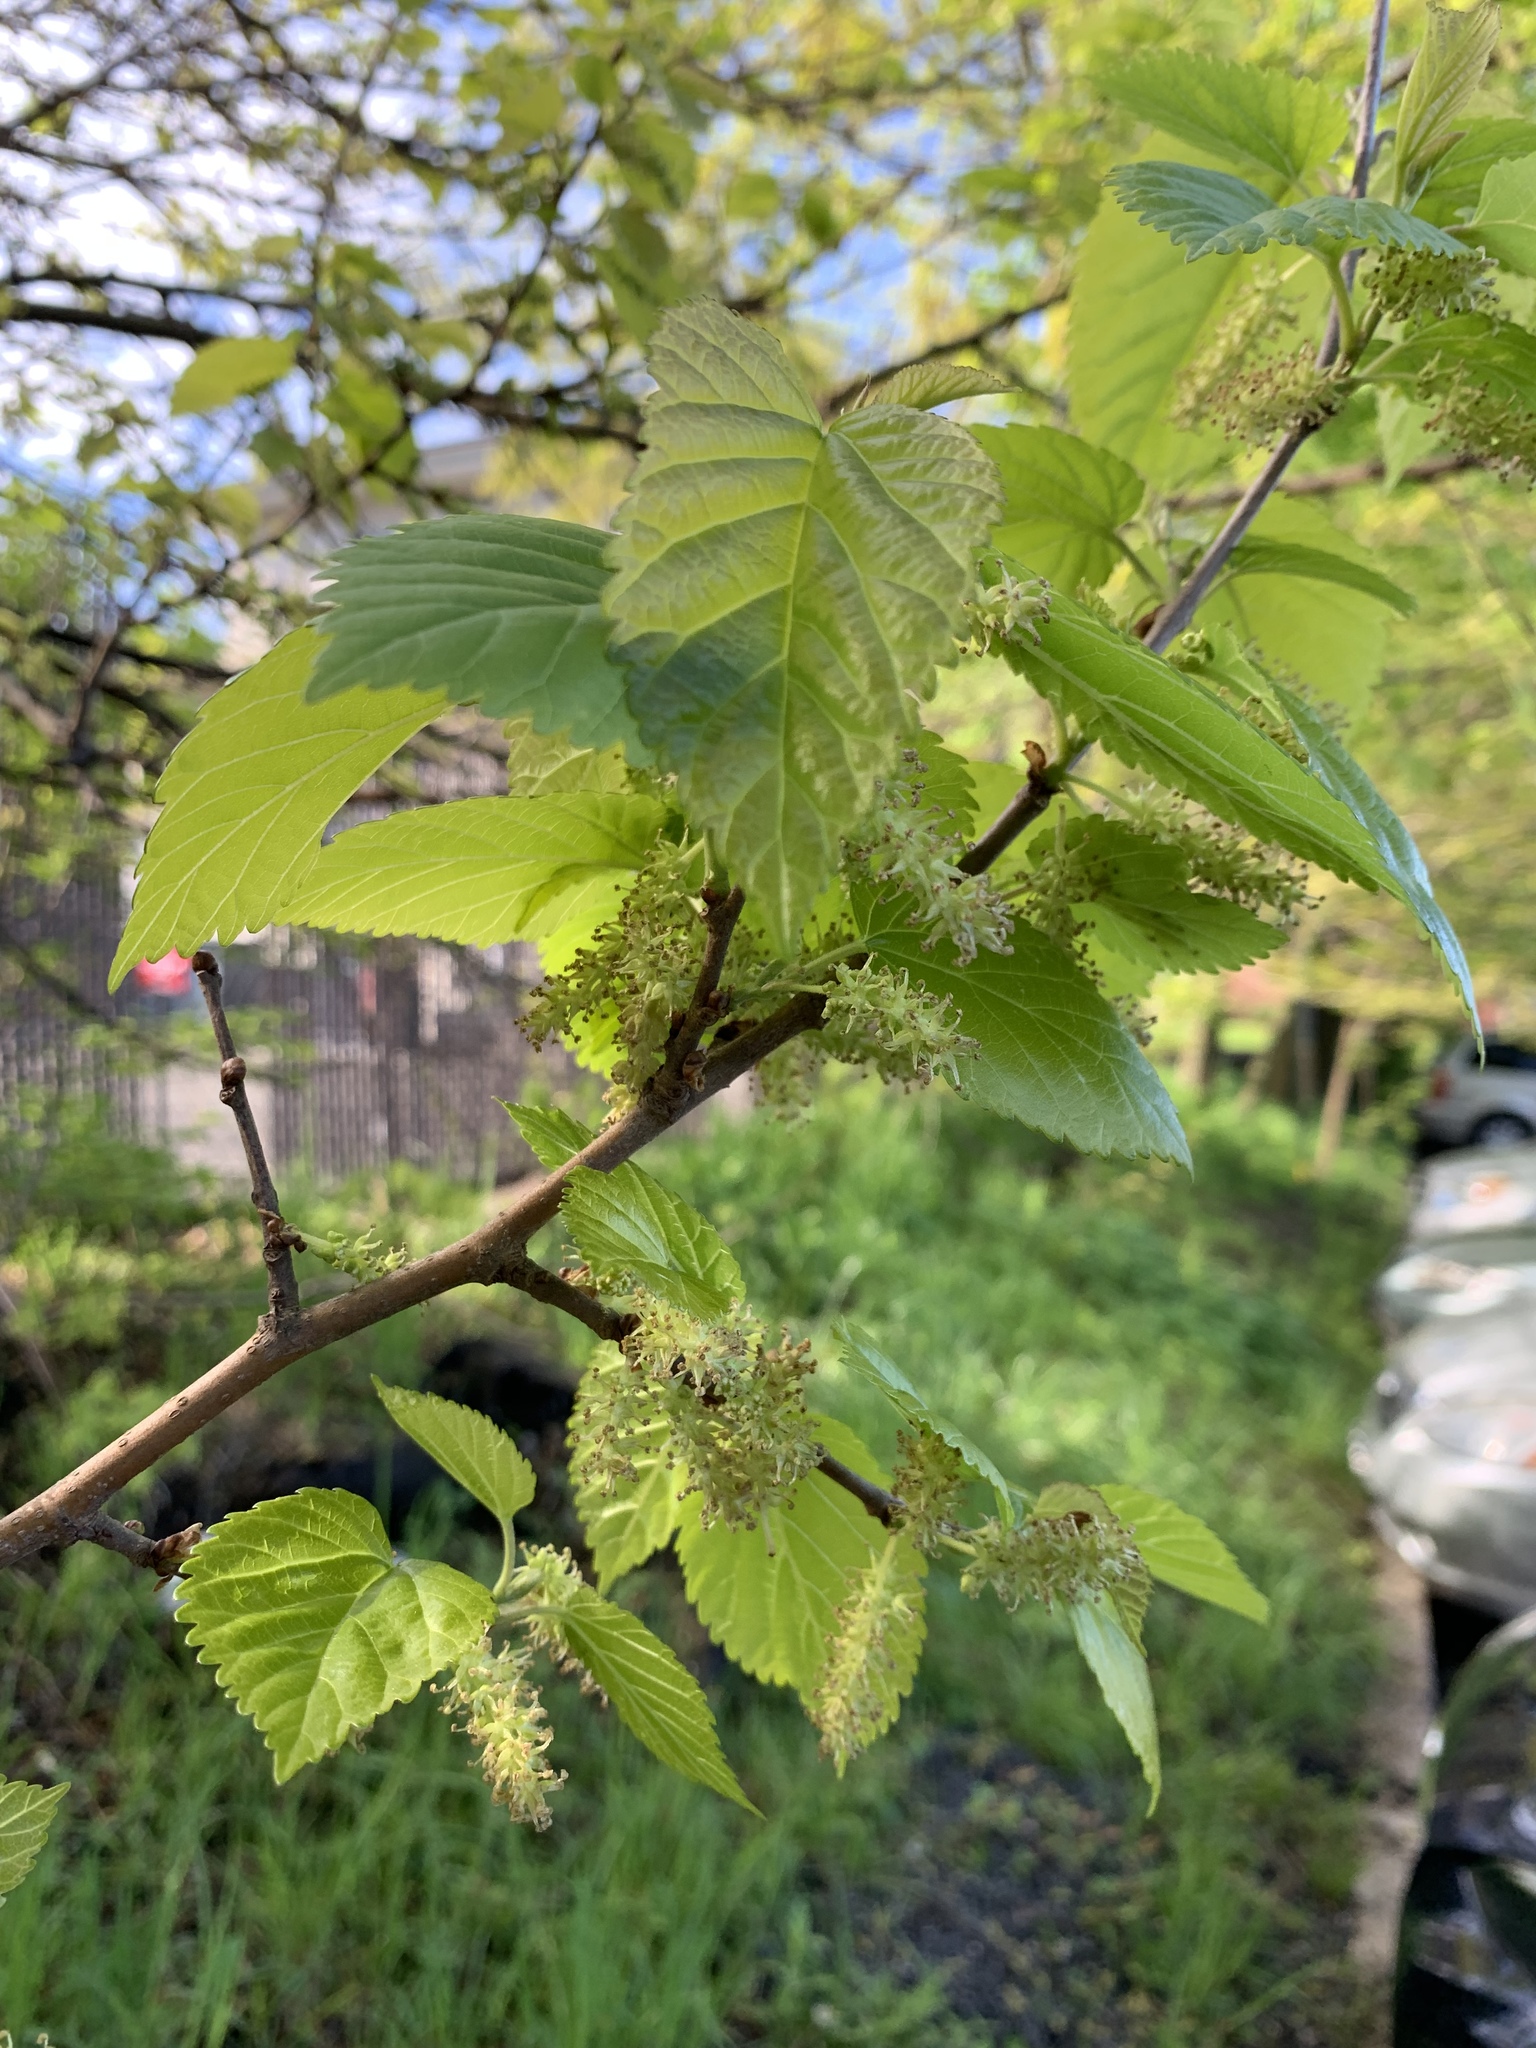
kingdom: Plantae
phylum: Tracheophyta
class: Magnoliopsida
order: Rosales
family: Moraceae
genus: Morus
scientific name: Morus alba
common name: White mulberry
